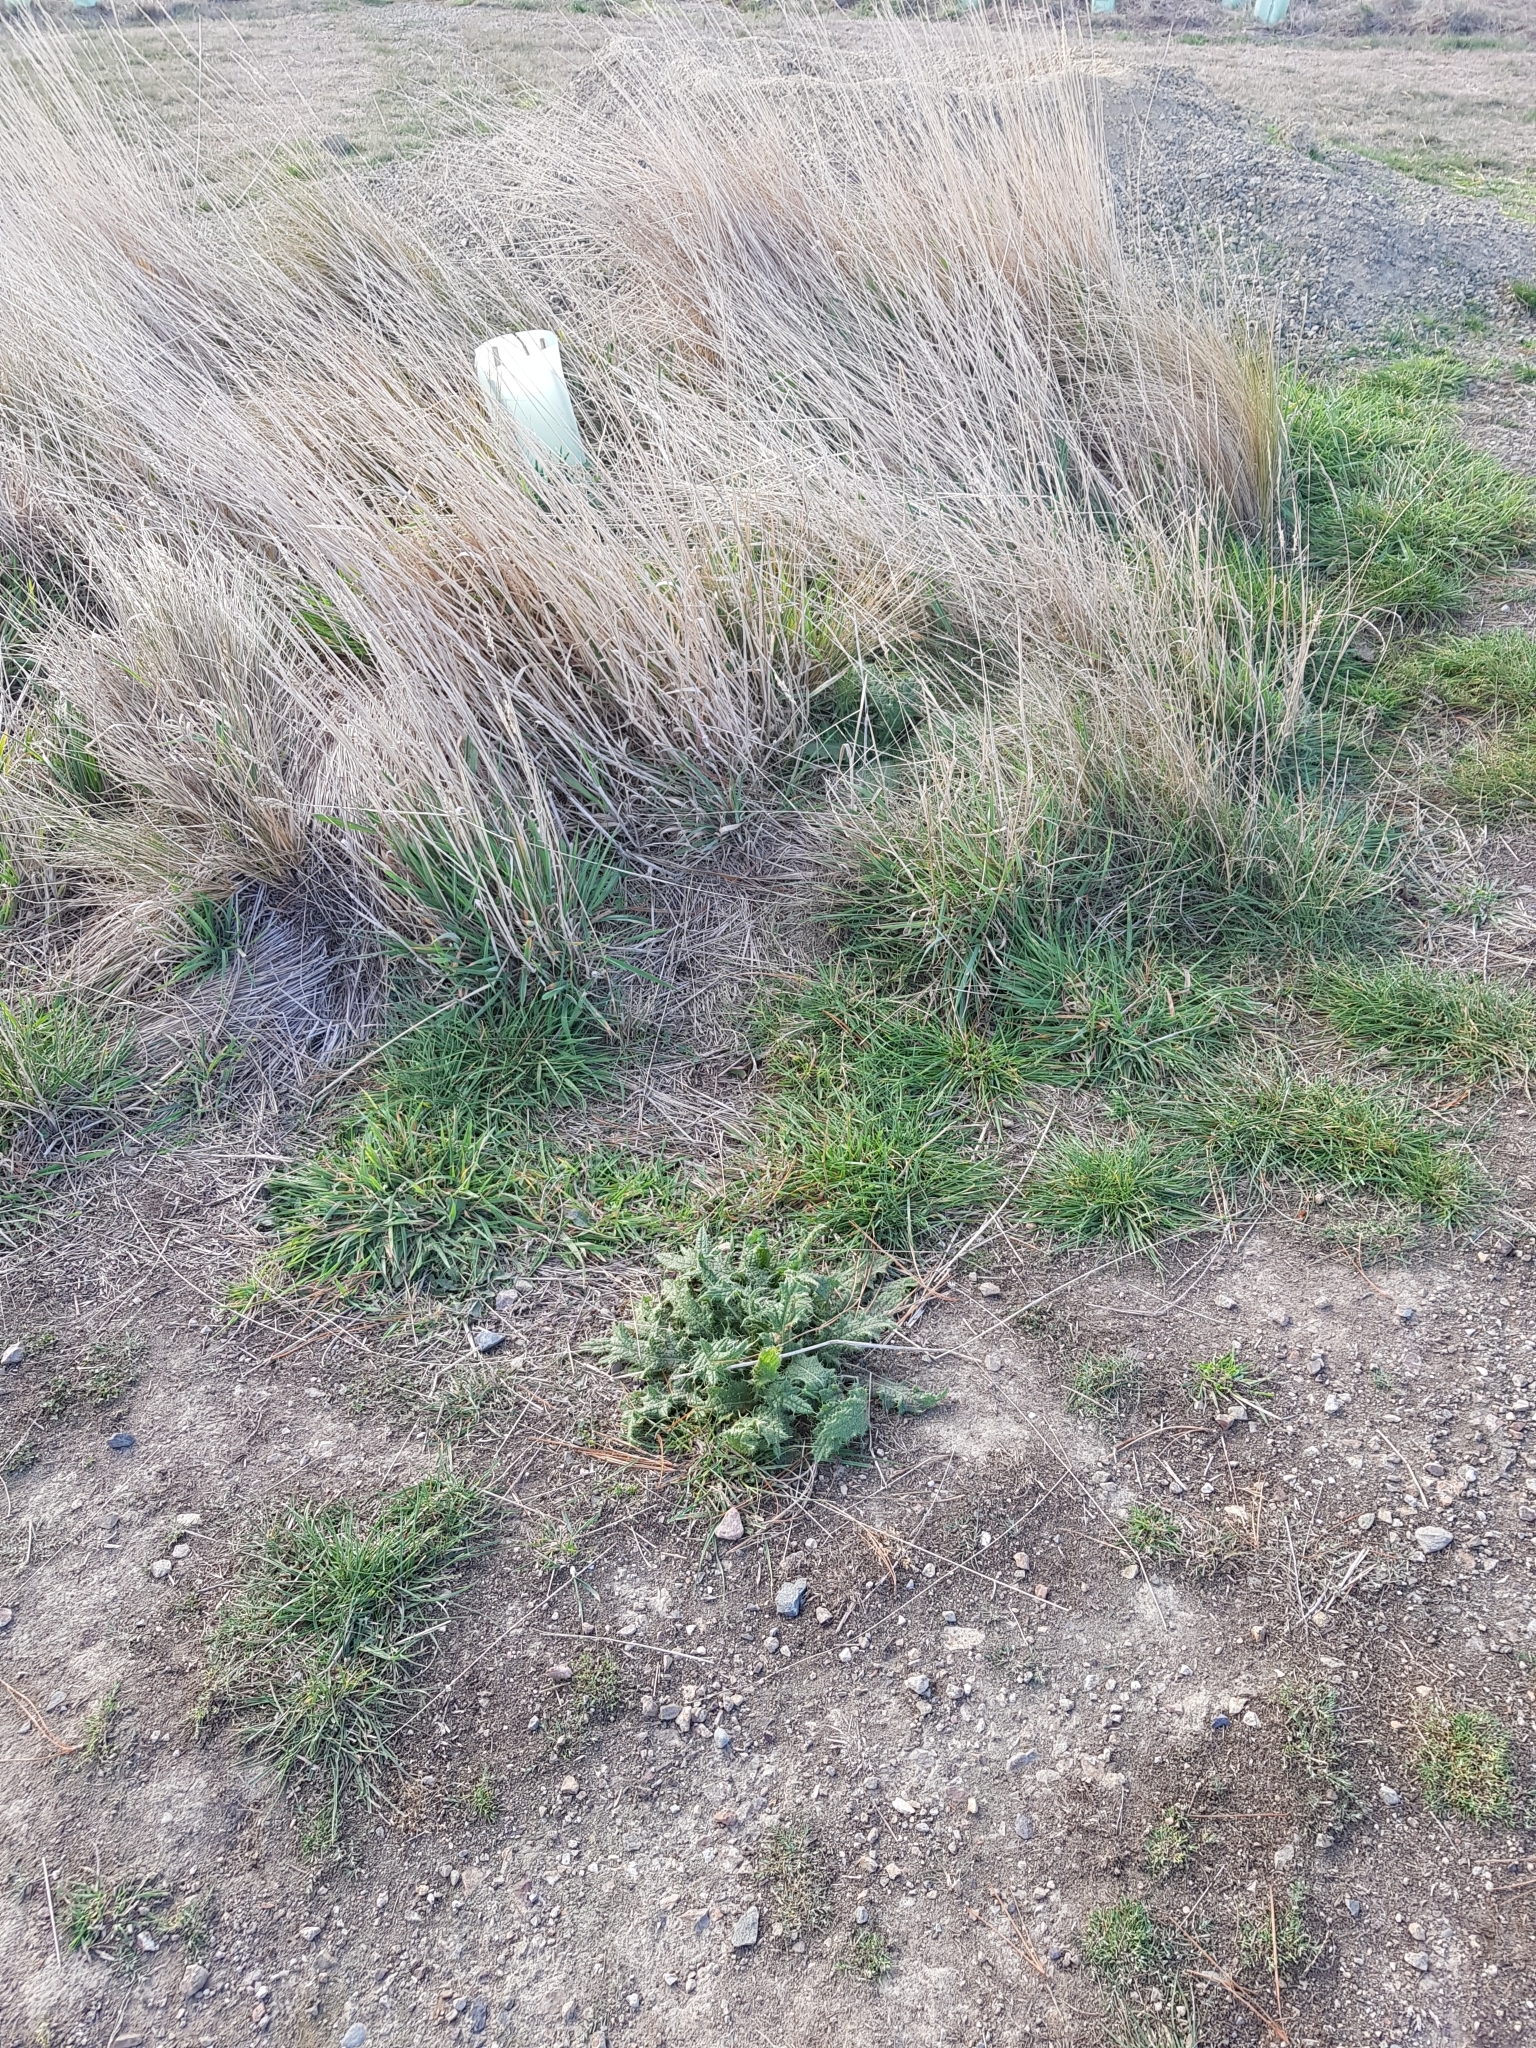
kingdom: Plantae
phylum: Tracheophyta
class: Magnoliopsida
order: Asterales
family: Asteraceae
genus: Cirsium
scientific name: Cirsium vulgare
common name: Bull thistle
